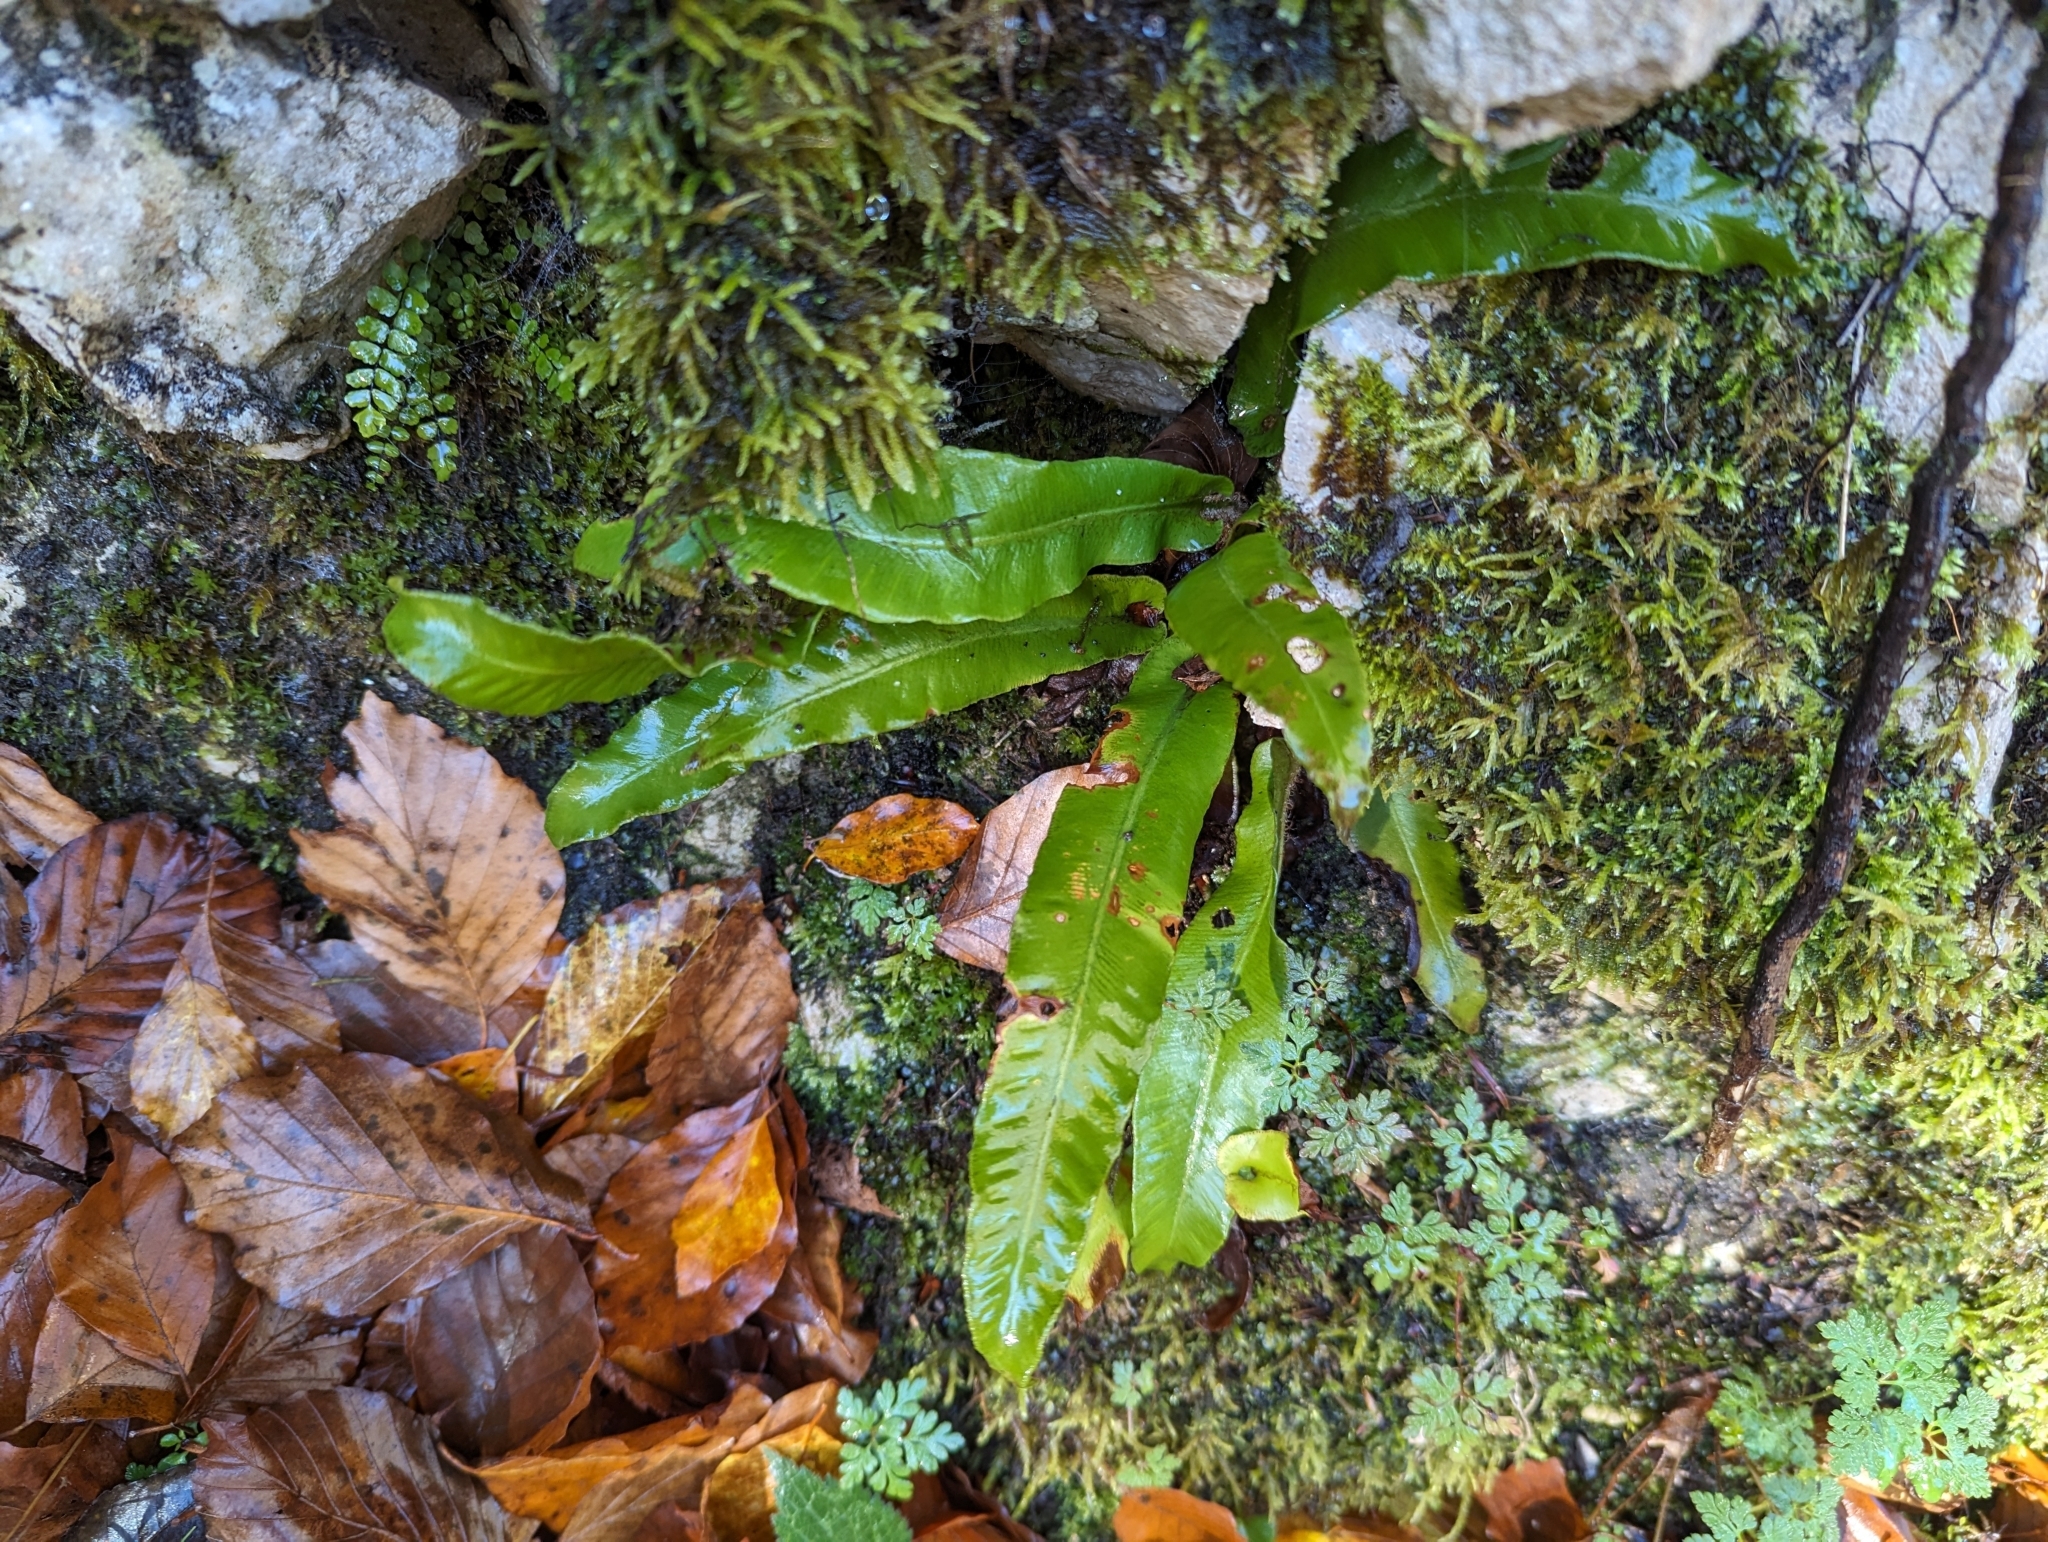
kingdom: Plantae
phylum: Tracheophyta
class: Polypodiopsida
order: Polypodiales
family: Aspleniaceae
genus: Asplenium
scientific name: Asplenium scolopendrium
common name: Hart's-tongue fern
